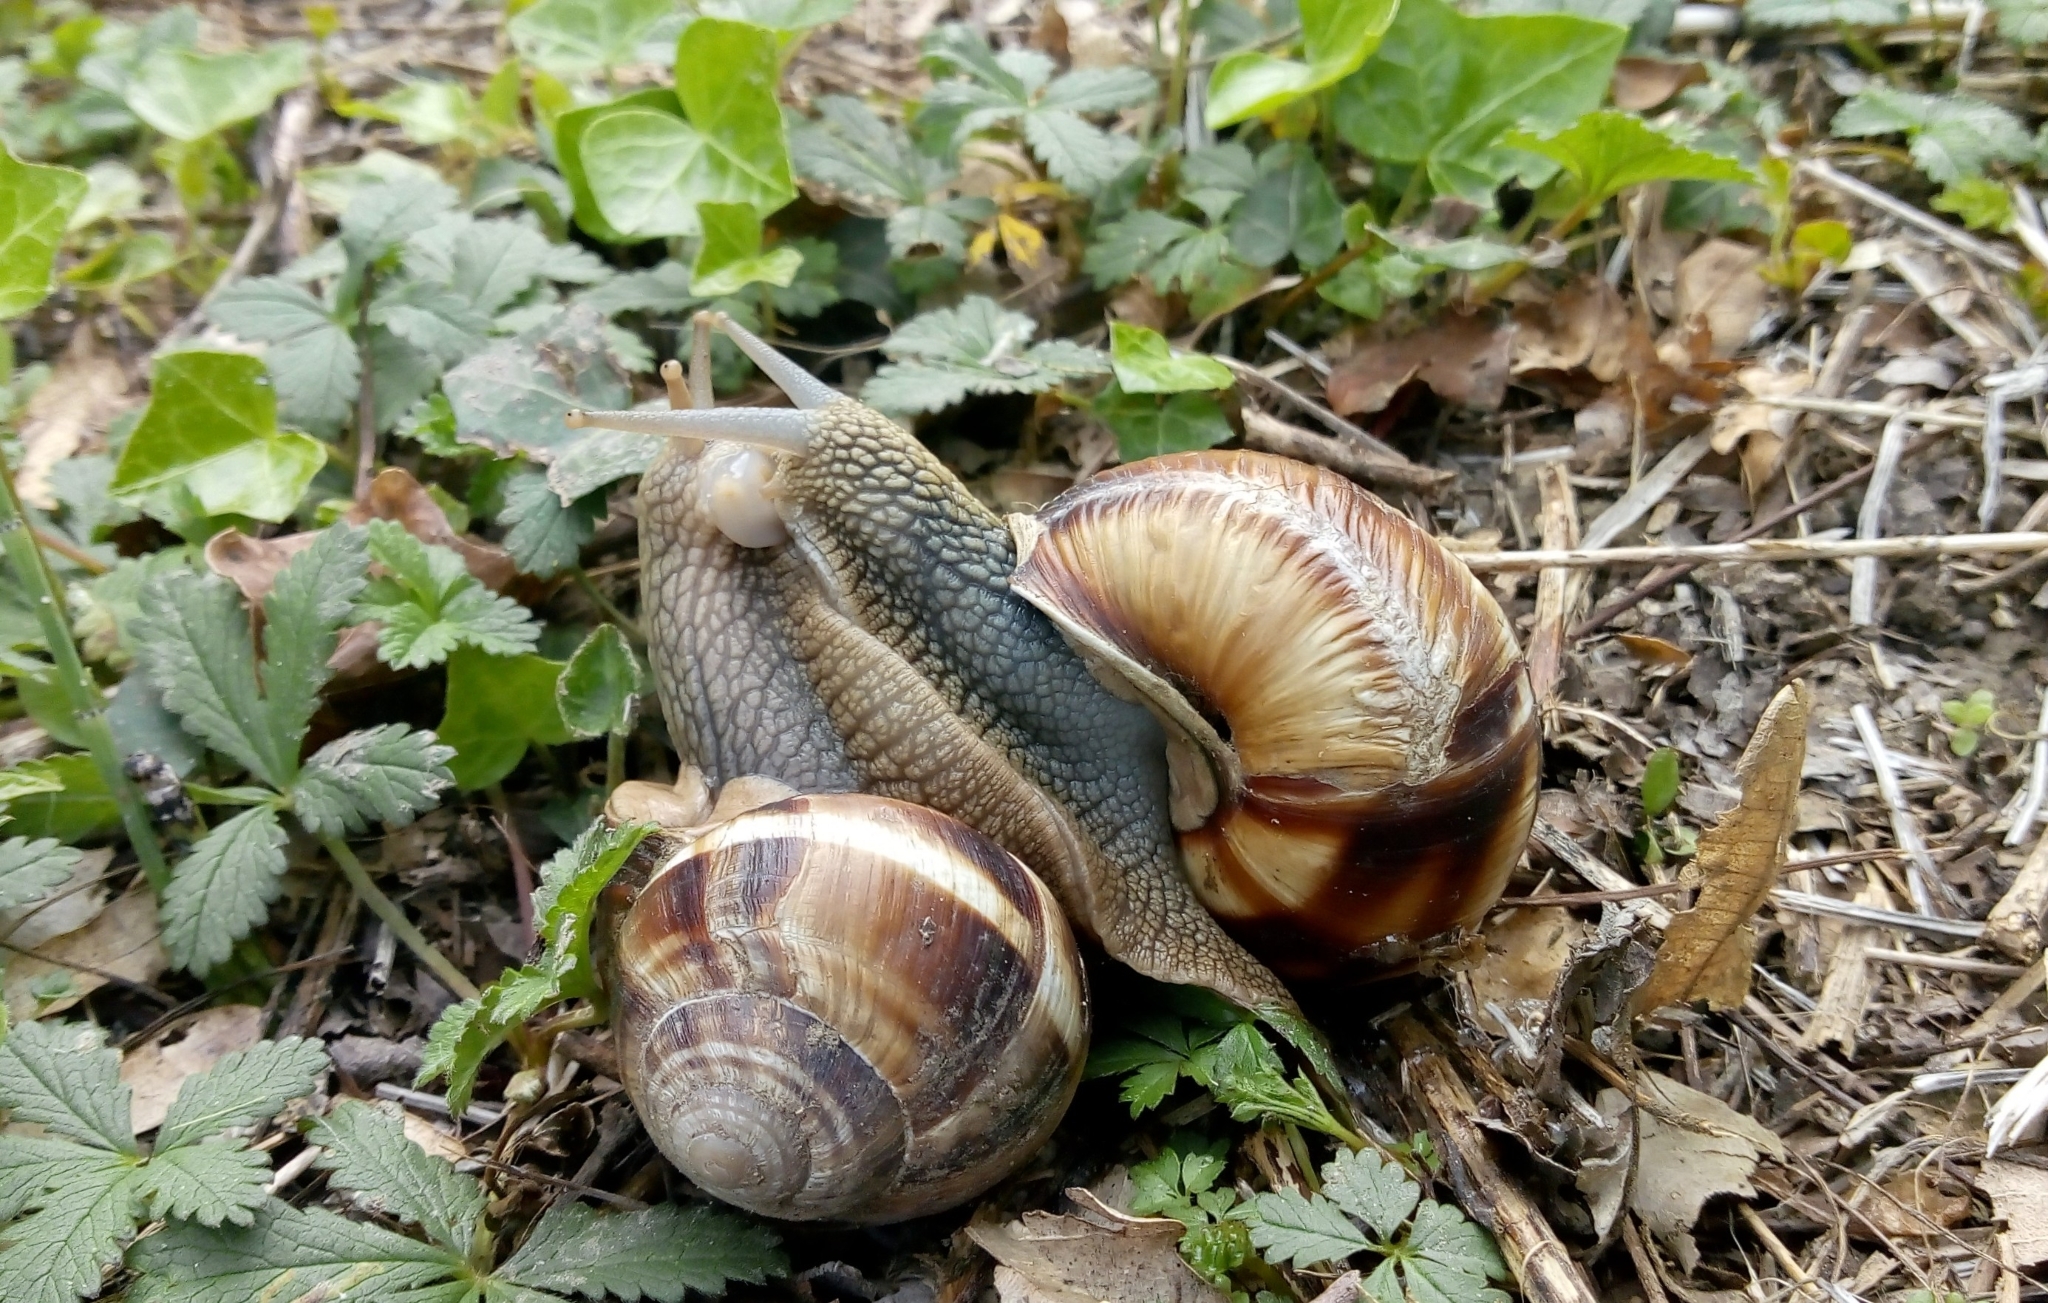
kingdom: Animalia
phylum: Mollusca
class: Gastropoda
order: Stylommatophora
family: Helicidae
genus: Helix
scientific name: Helix lucorum
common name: Turkish snail
